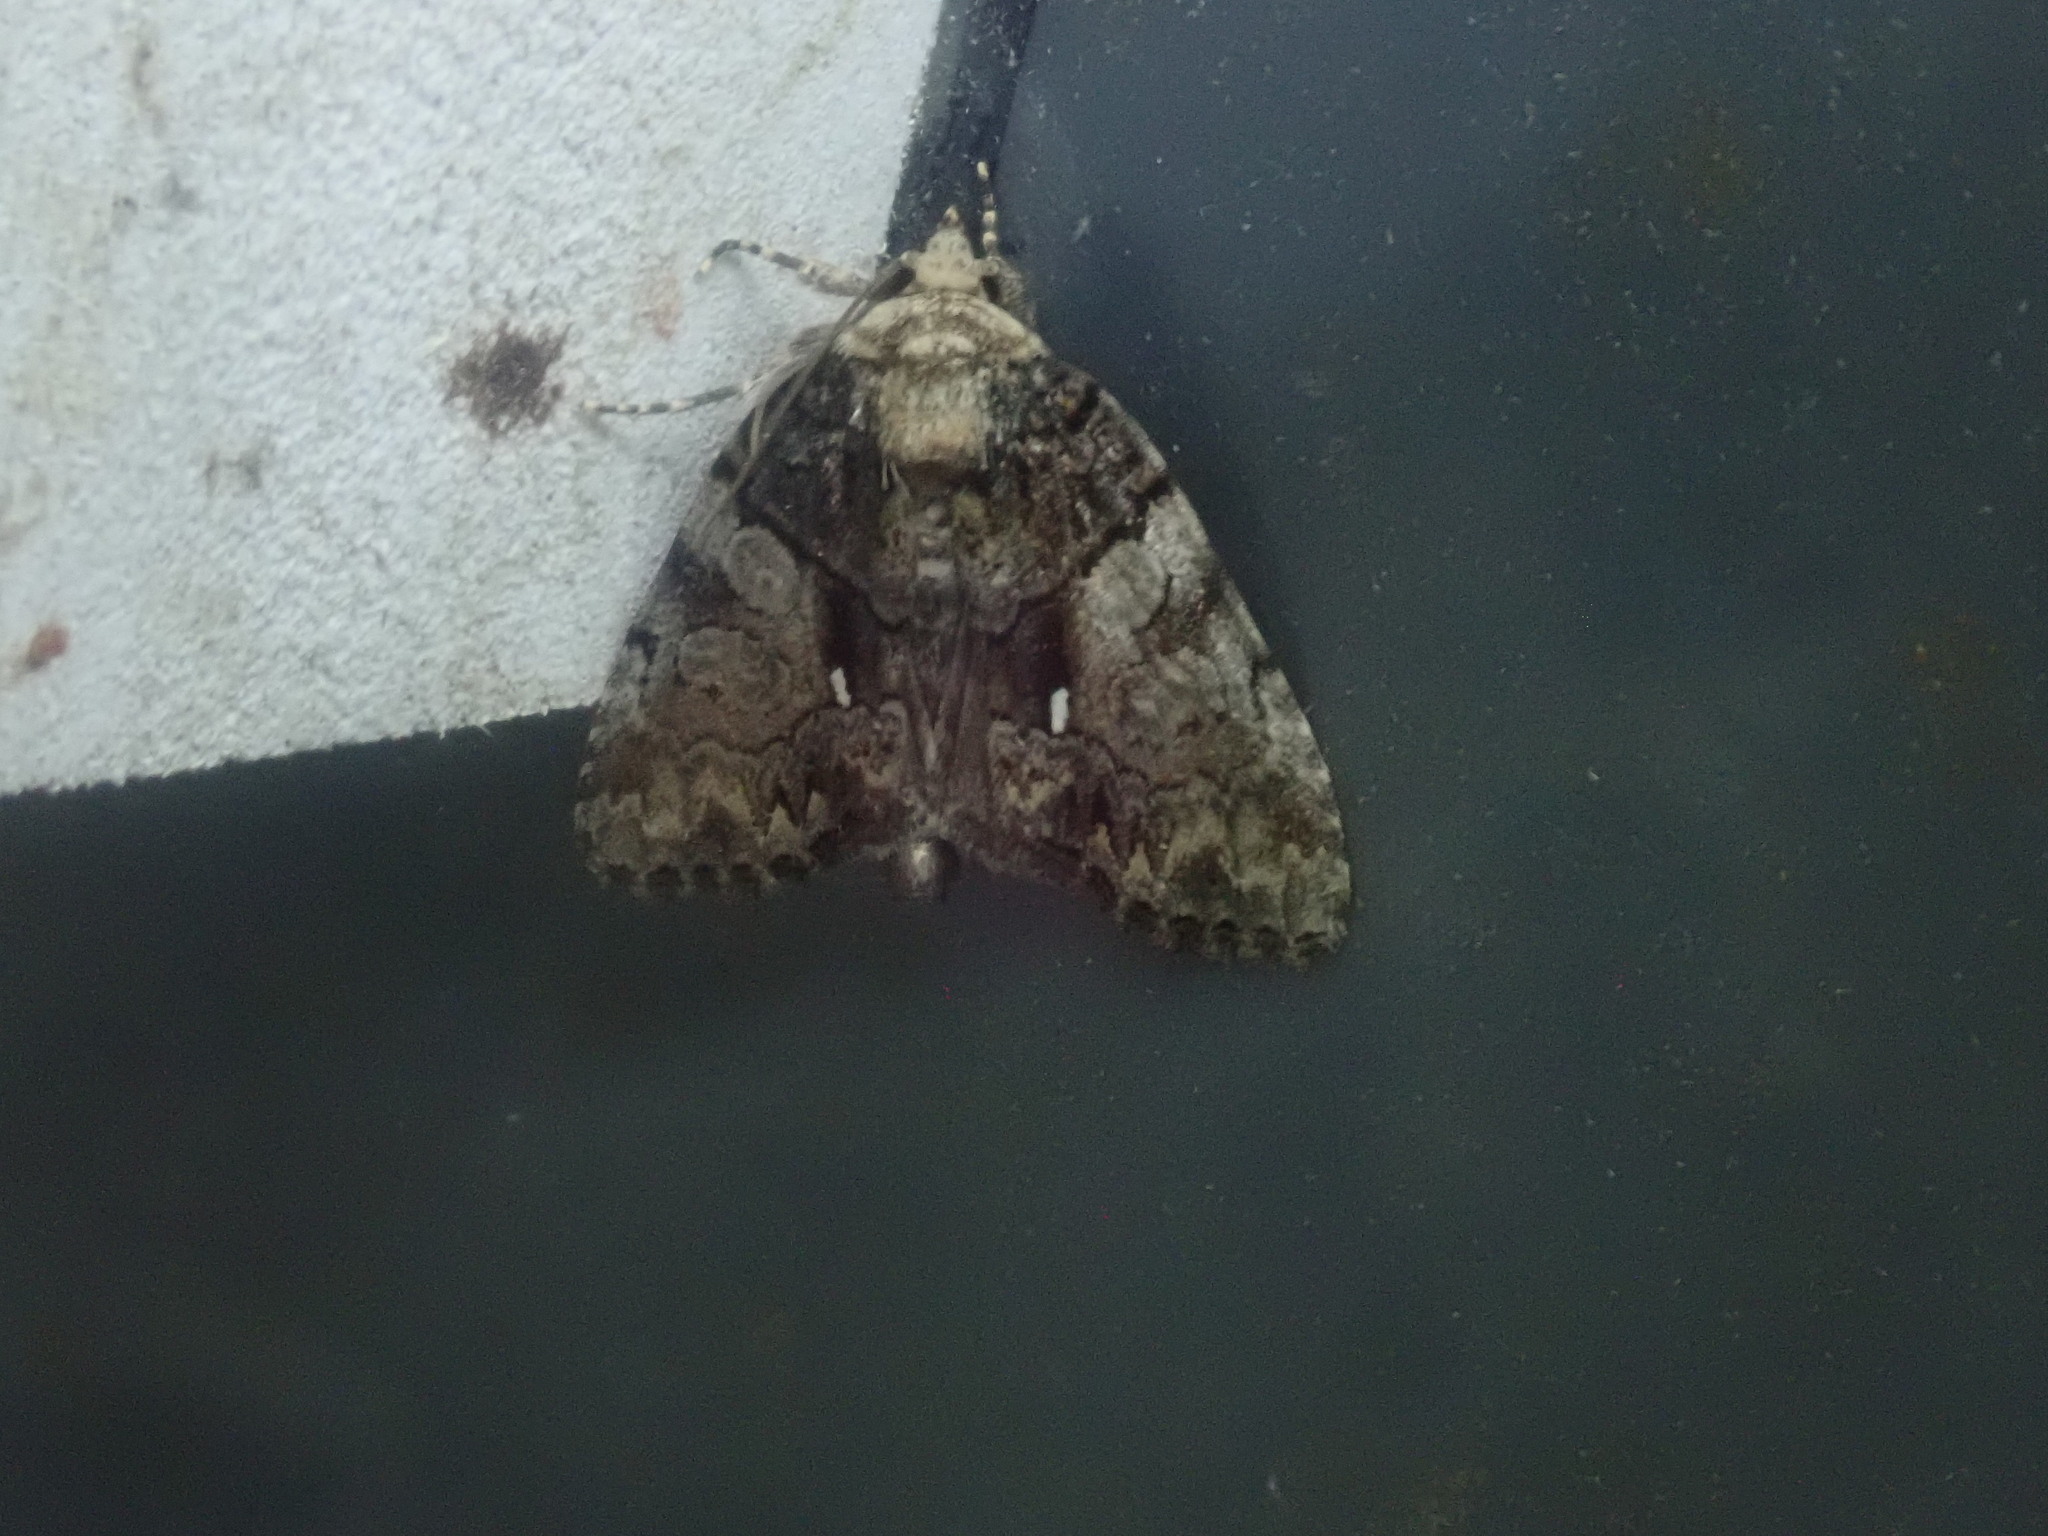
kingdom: Animalia
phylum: Arthropoda
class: Insecta
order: Lepidoptera
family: Noctuidae
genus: Chytonix
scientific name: Chytonix palliatricula
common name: Cloaked marvel
